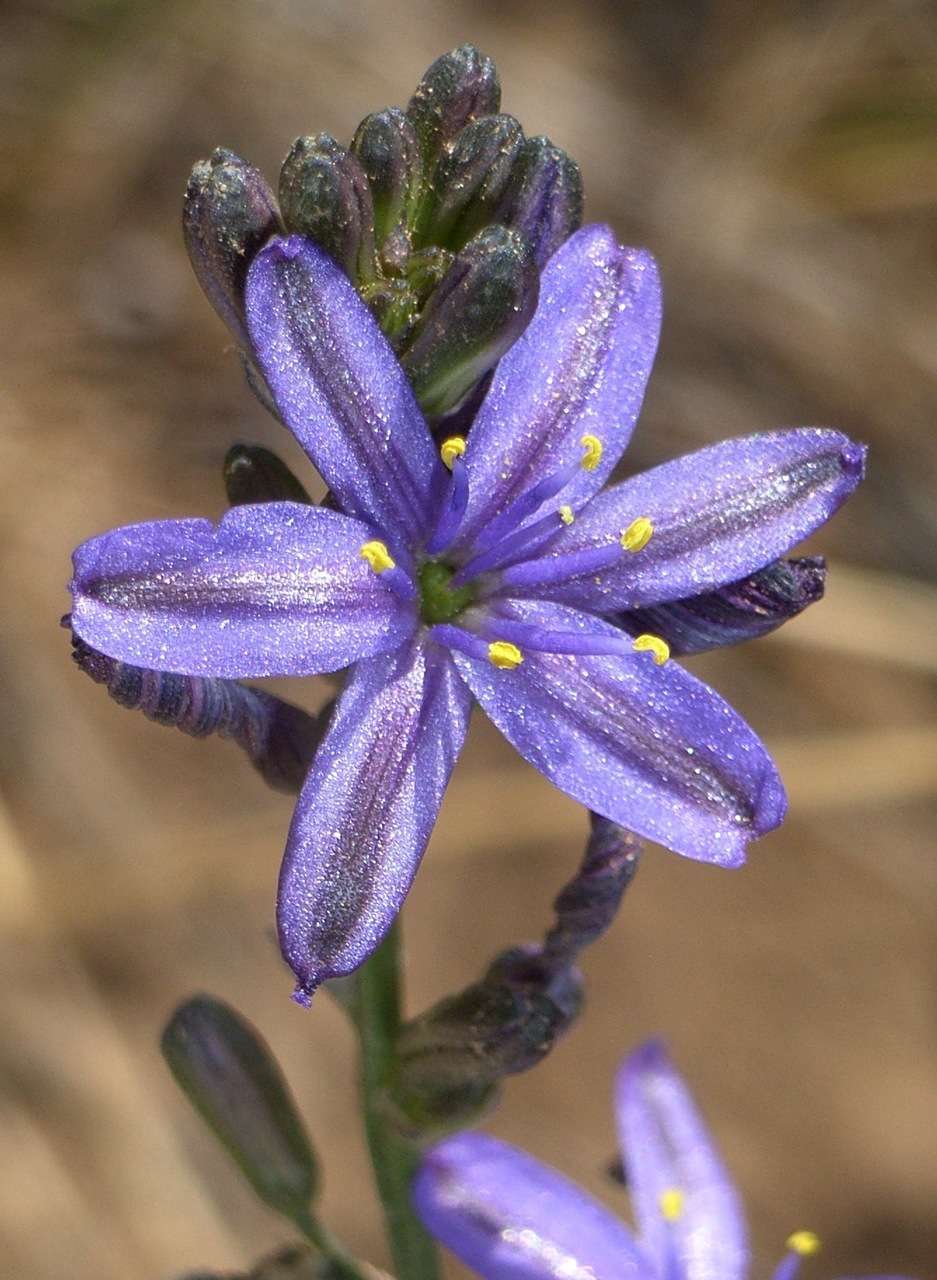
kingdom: Plantae
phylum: Tracheophyta
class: Liliopsida
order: Asparagales
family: Asphodelaceae
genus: Caesia
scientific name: Caesia calliantha
